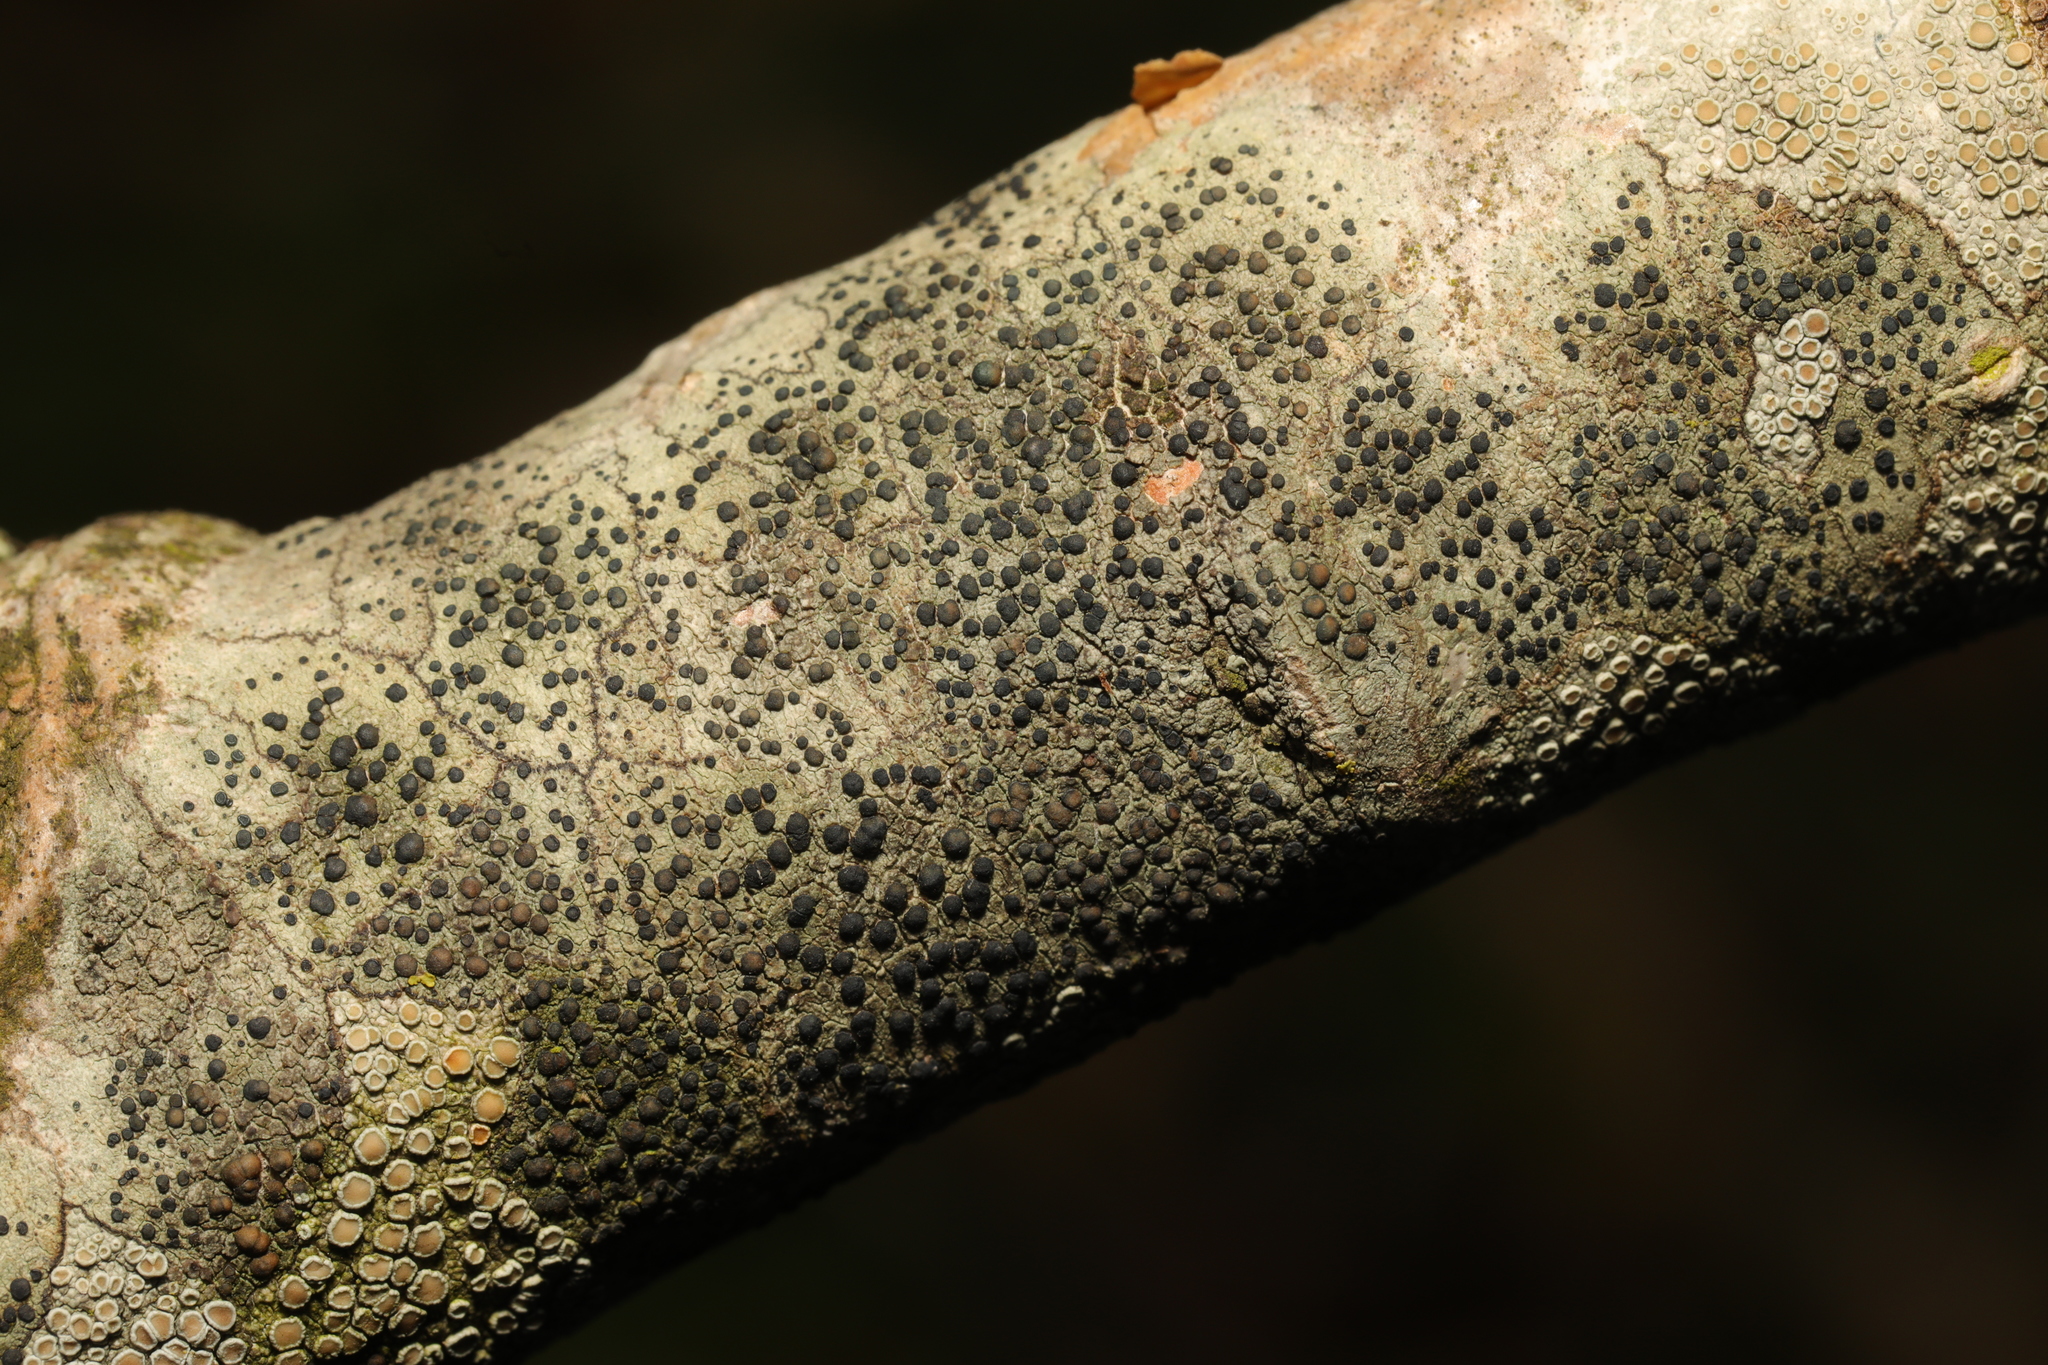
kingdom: Fungi
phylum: Ascomycota
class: Lecanoromycetes
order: Lecanorales
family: Lecanoraceae
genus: Lecidella
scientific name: Lecidella elaeochroma
